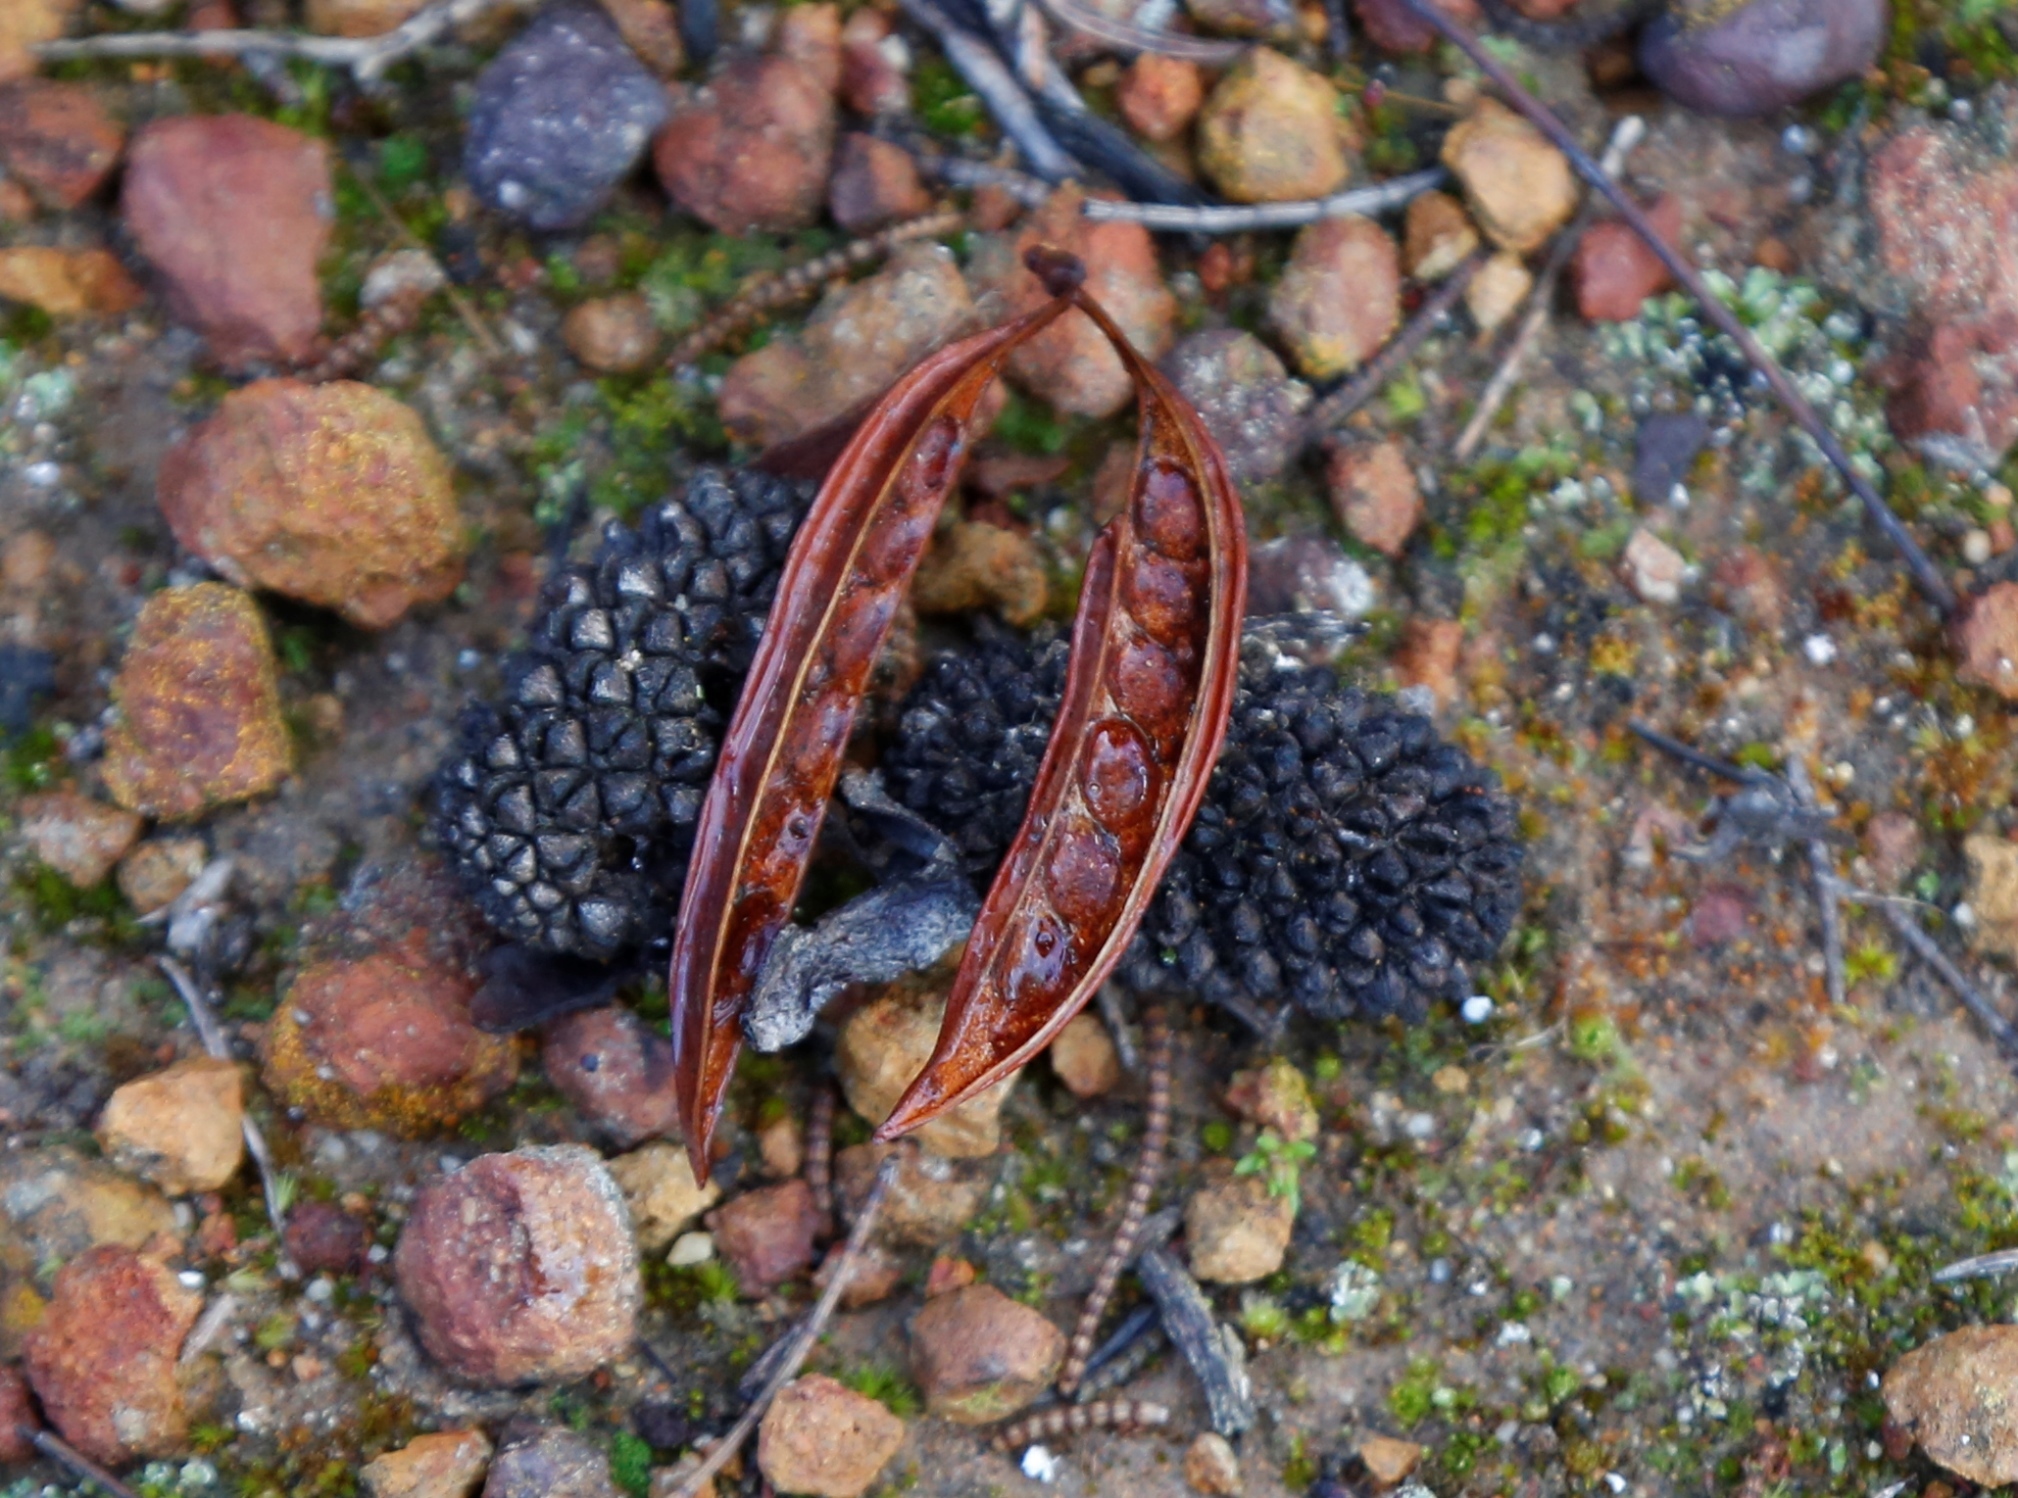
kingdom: Plantae
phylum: Tracheophyta
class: Magnoliopsida
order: Fabales
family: Fabaceae
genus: Acacia
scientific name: Acacia stenoptera
